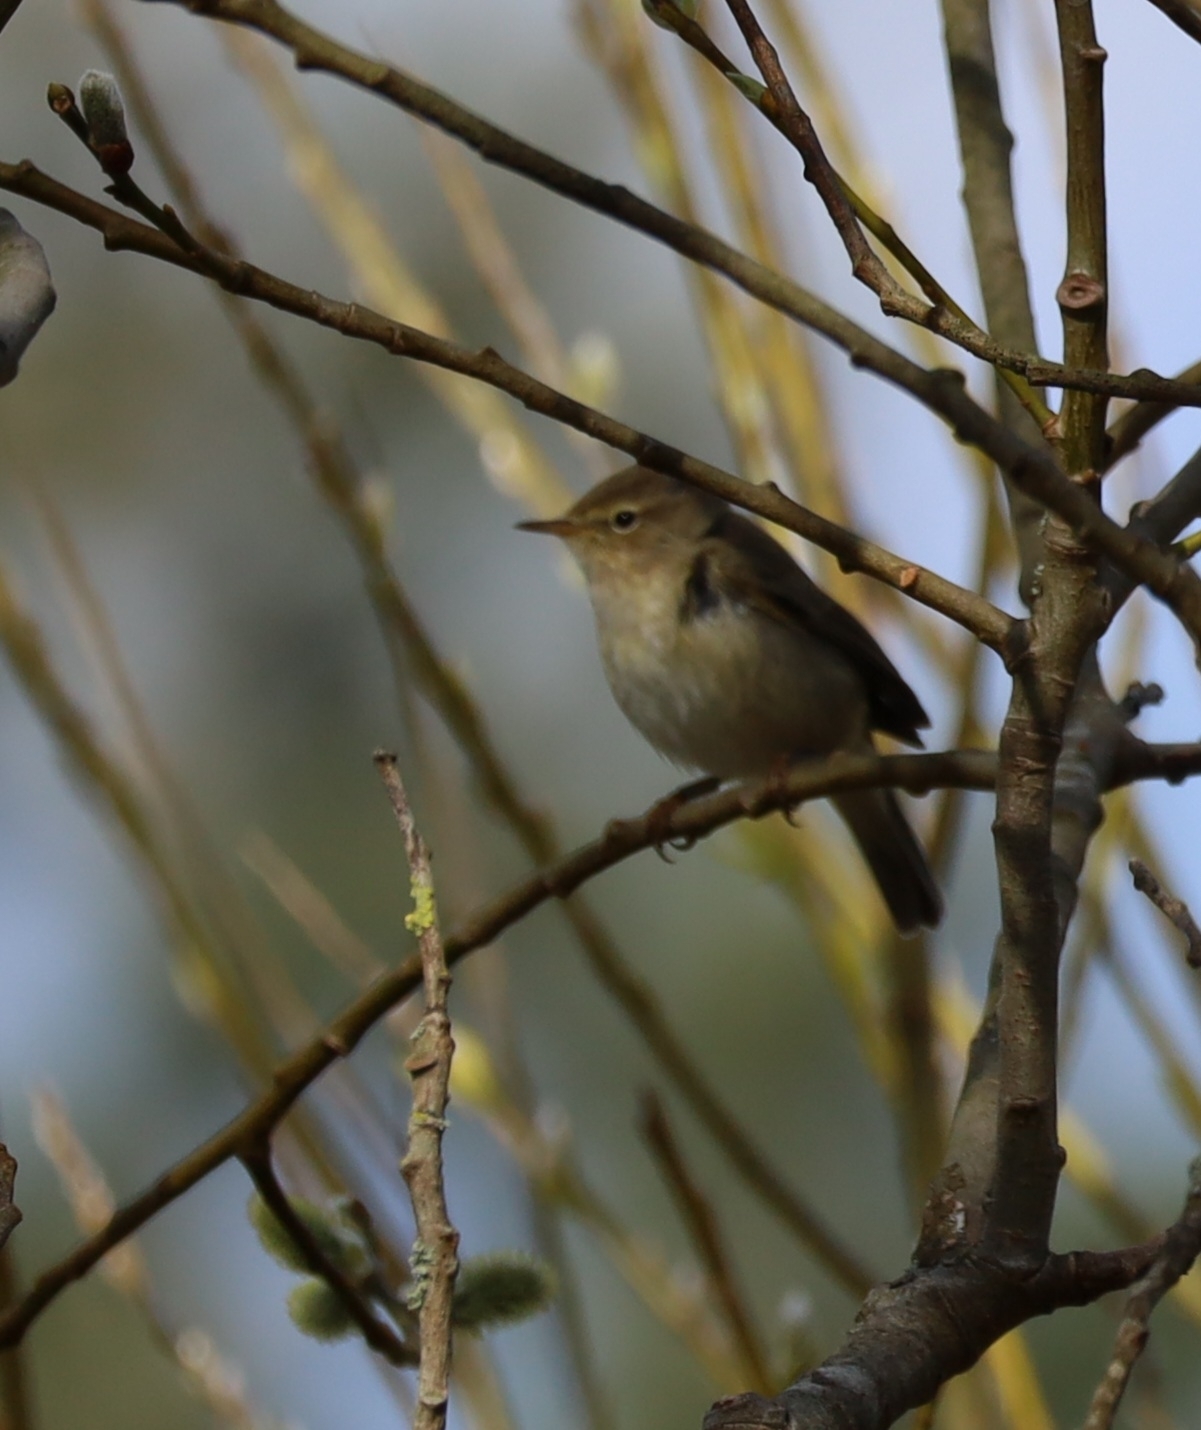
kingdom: Animalia
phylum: Chordata
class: Aves
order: Passeriformes
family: Phylloscopidae
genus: Phylloscopus
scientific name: Phylloscopus collybita
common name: Common chiffchaff
